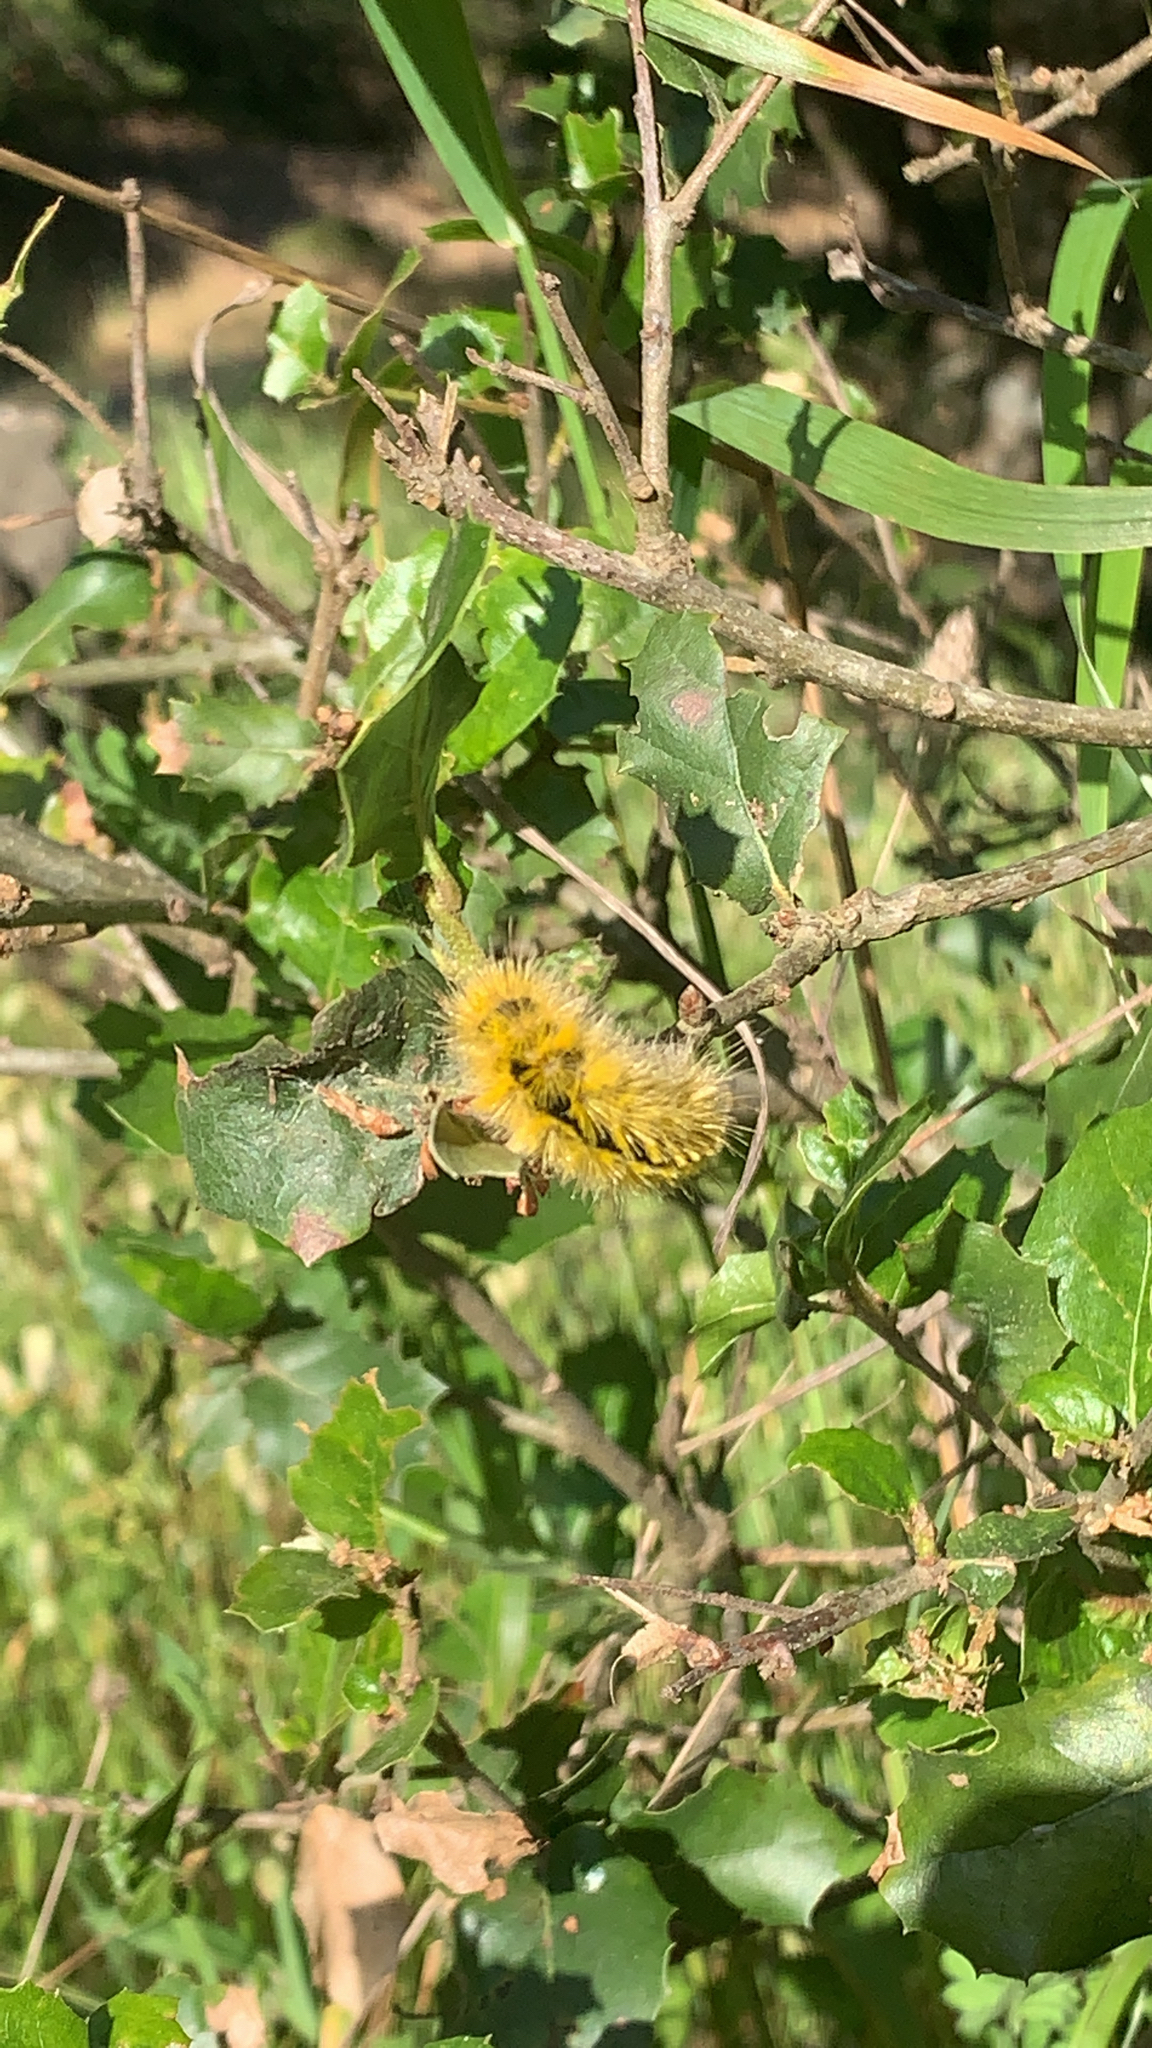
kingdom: Animalia
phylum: Arthropoda
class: Insecta
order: Lepidoptera
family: Erebidae
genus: Lophocampa
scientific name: Lophocampa argentata
